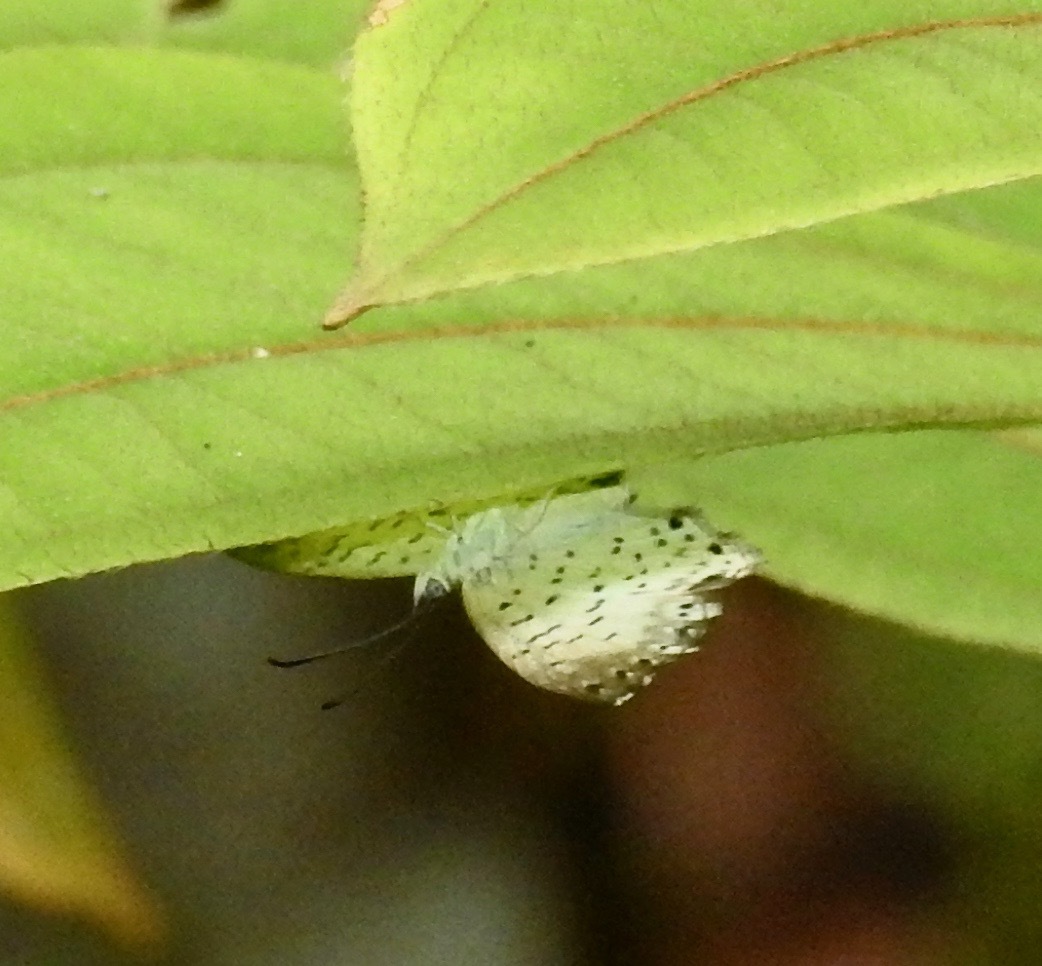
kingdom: Animalia
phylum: Arthropoda
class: Insecta
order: Lepidoptera
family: Riodinidae
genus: Polystichtis
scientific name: Polystichtis lucianus
